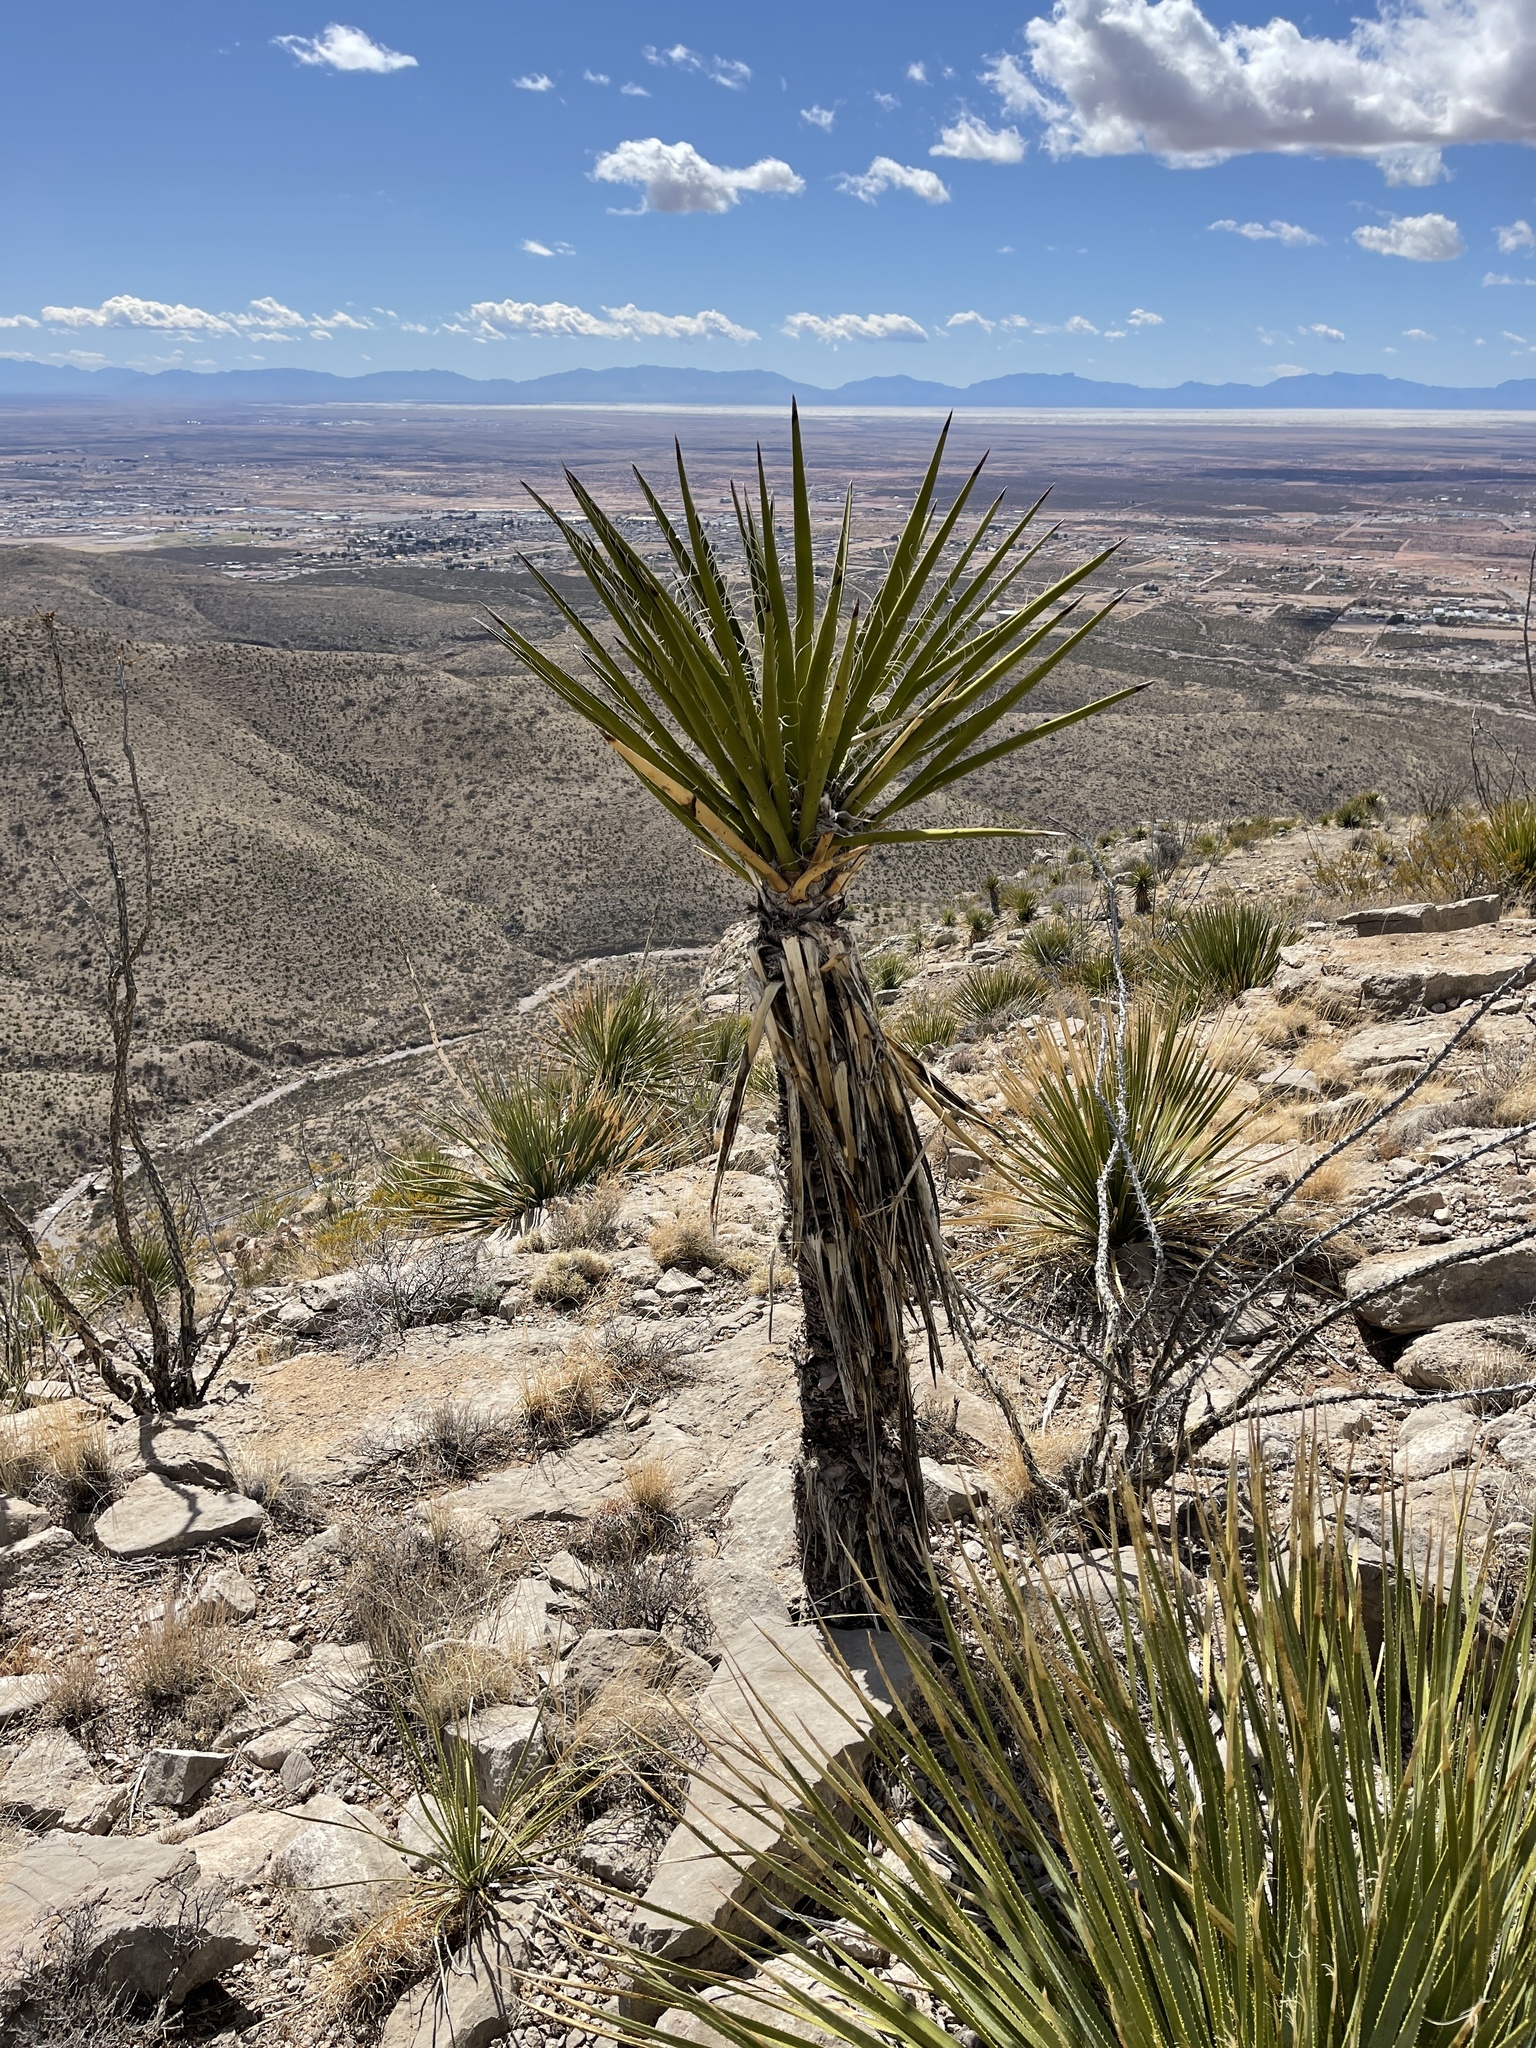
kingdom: Plantae
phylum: Tracheophyta
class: Liliopsida
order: Asparagales
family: Asparagaceae
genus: Yucca
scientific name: Yucca treculiana
